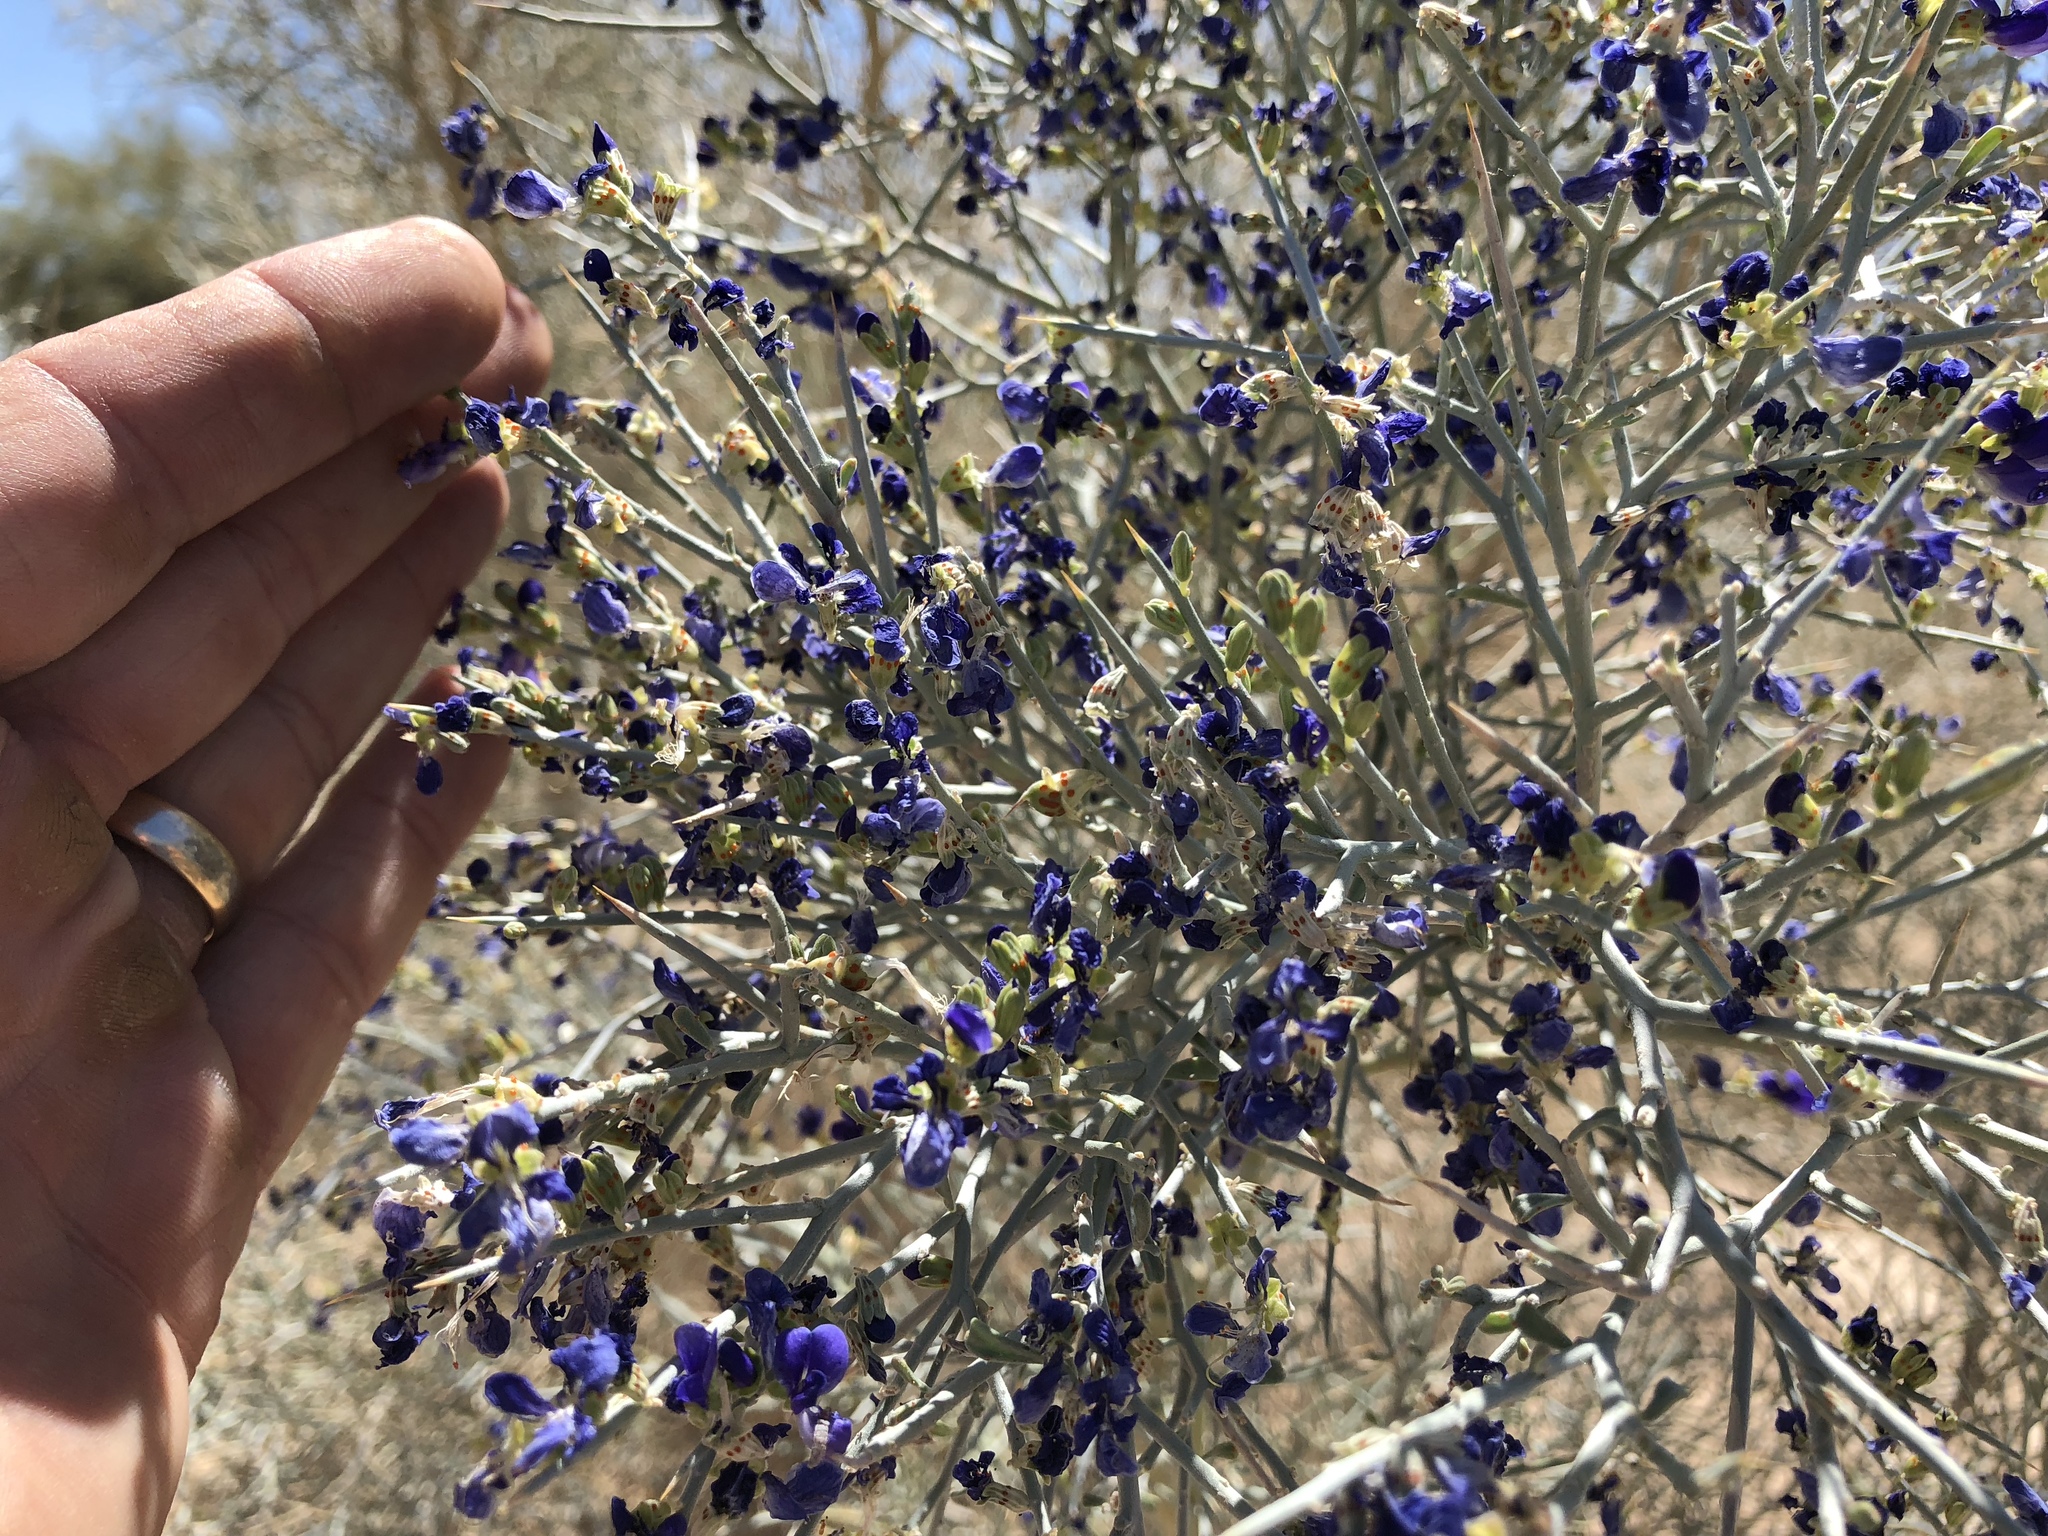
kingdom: Plantae
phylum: Tracheophyta
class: Magnoliopsida
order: Fabales
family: Fabaceae
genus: Psorothamnus
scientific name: Psorothamnus spinosus
